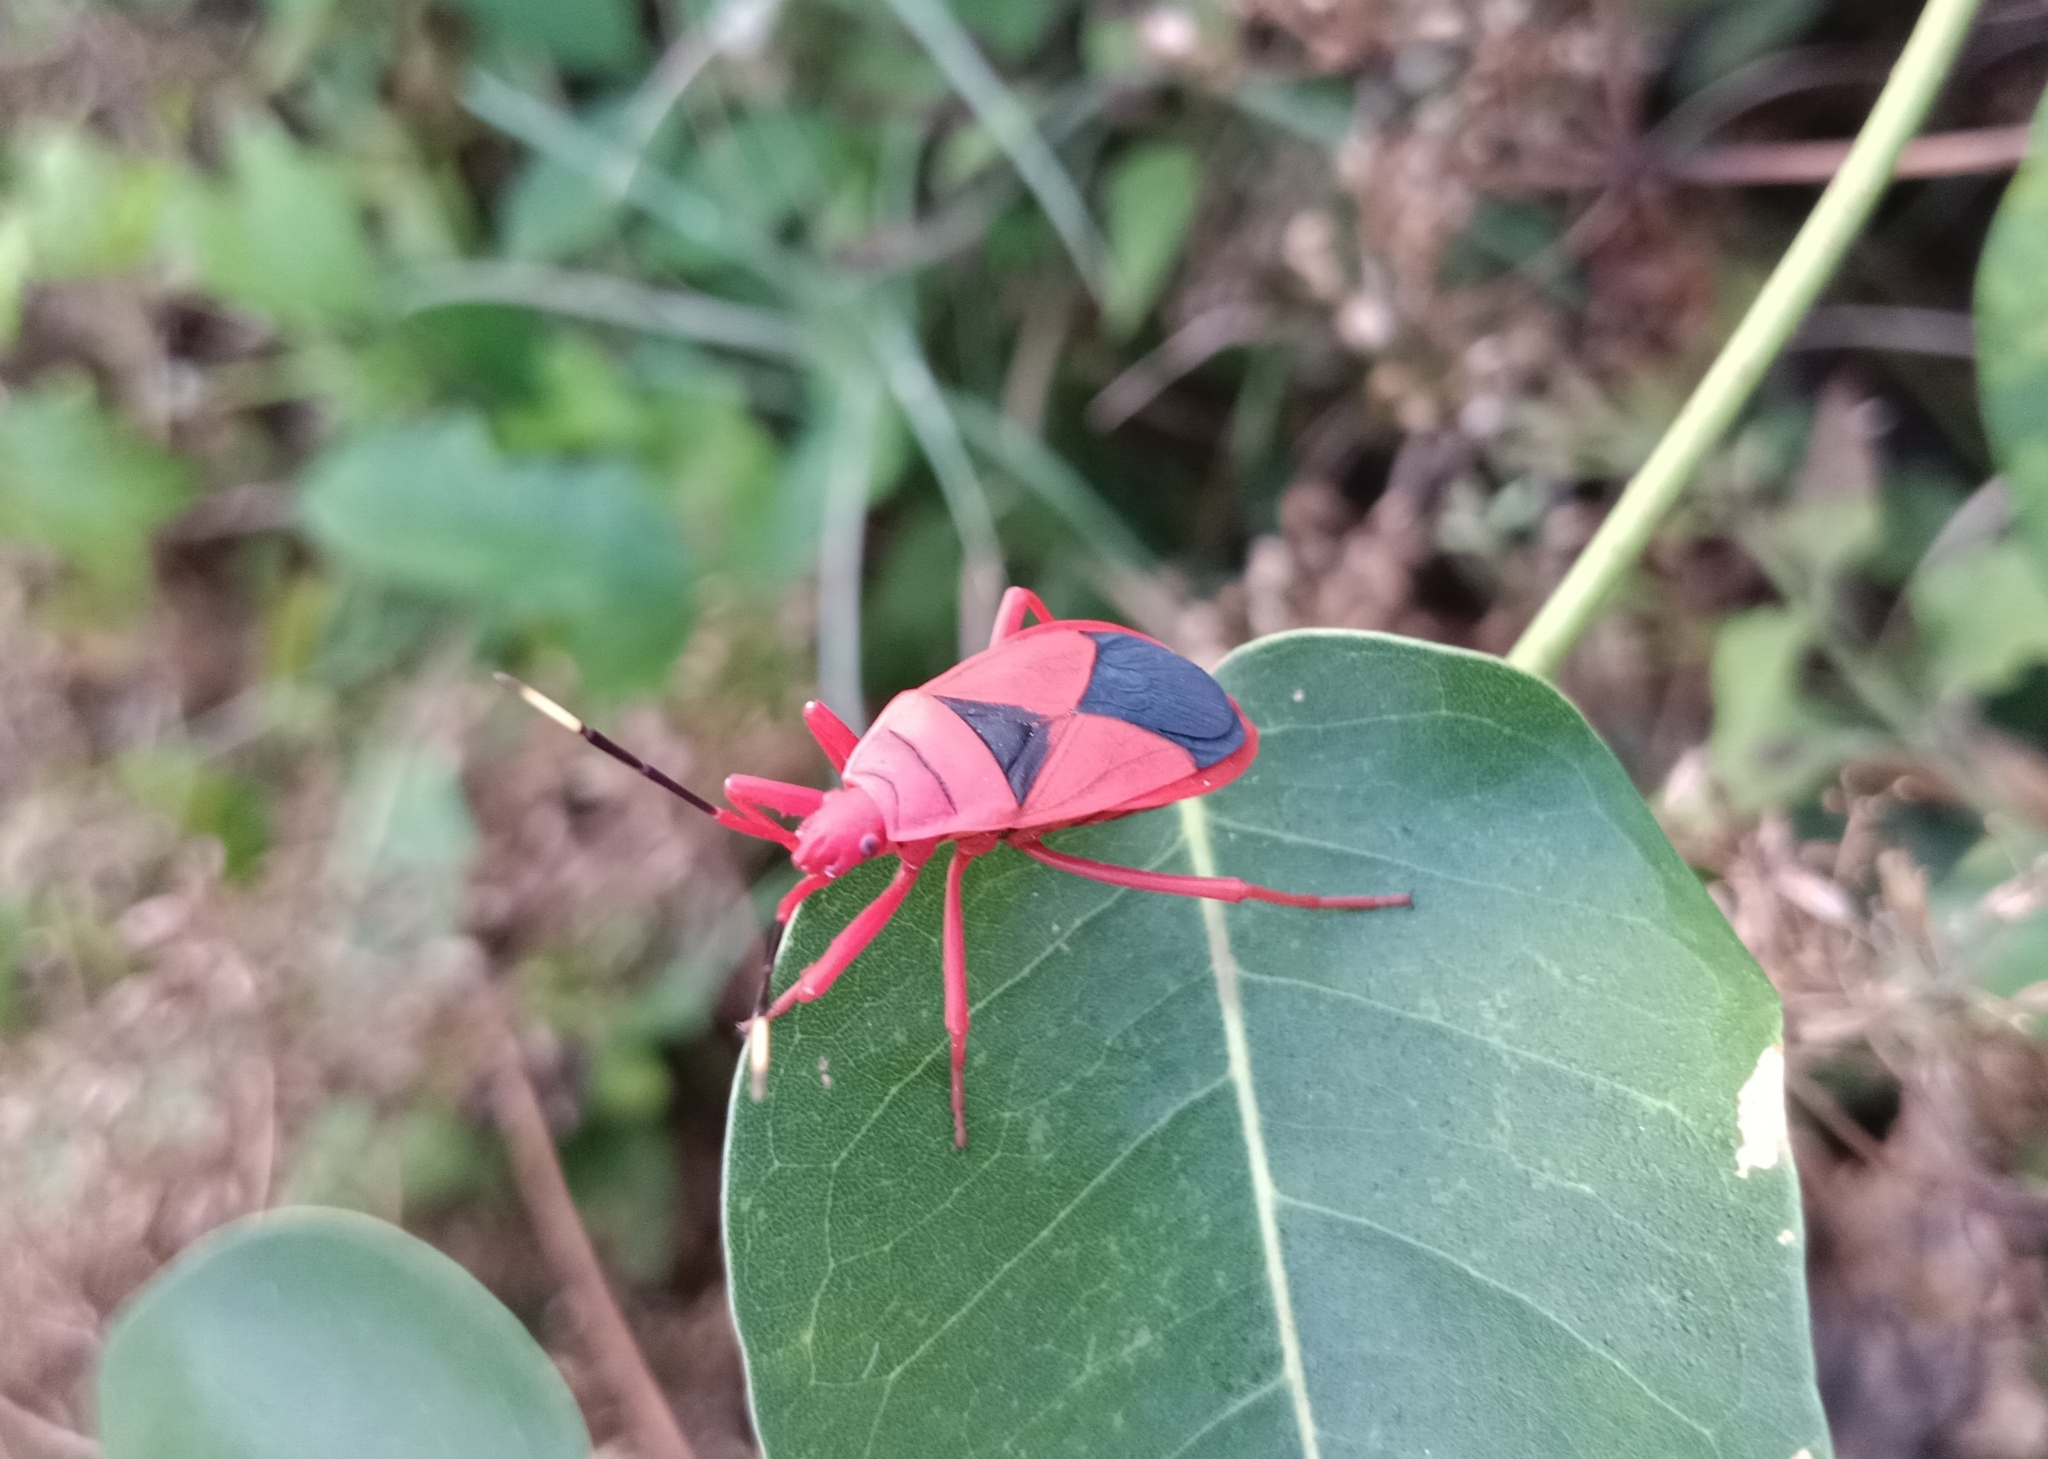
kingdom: Animalia
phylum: Arthropoda
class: Insecta
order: Hemiptera
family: Pyrrhocoridae
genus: Probergrothius
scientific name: Probergrothius
